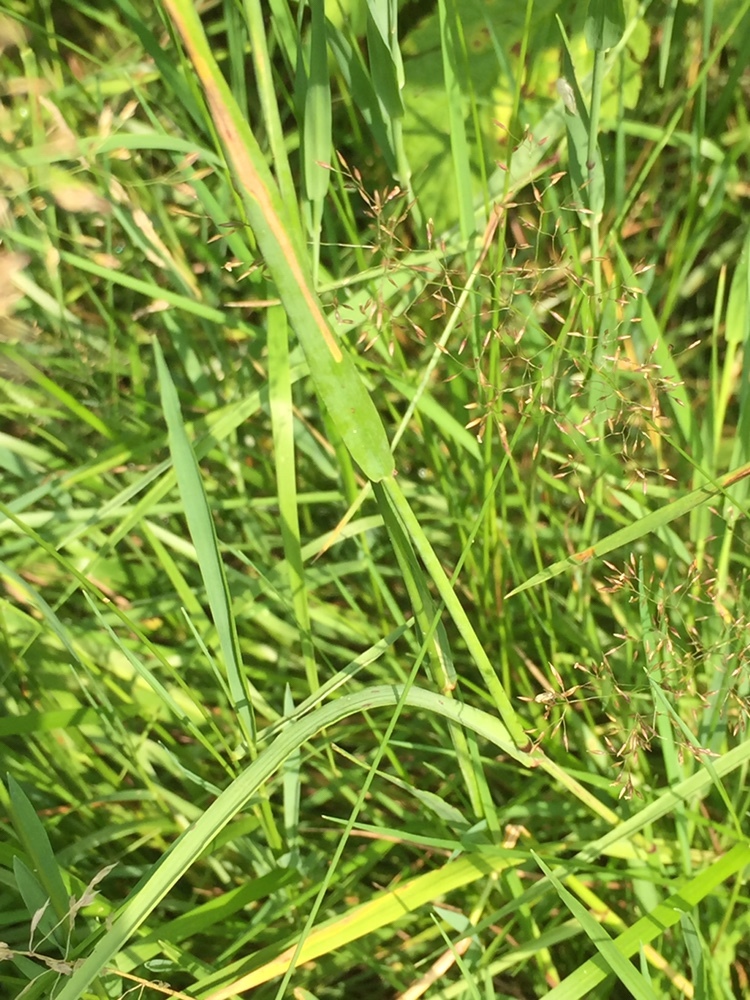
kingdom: Plantae
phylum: Tracheophyta
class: Liliopsida
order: Poales
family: Poaceae
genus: Phleum
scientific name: Phleum pratense
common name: Timothy grass
